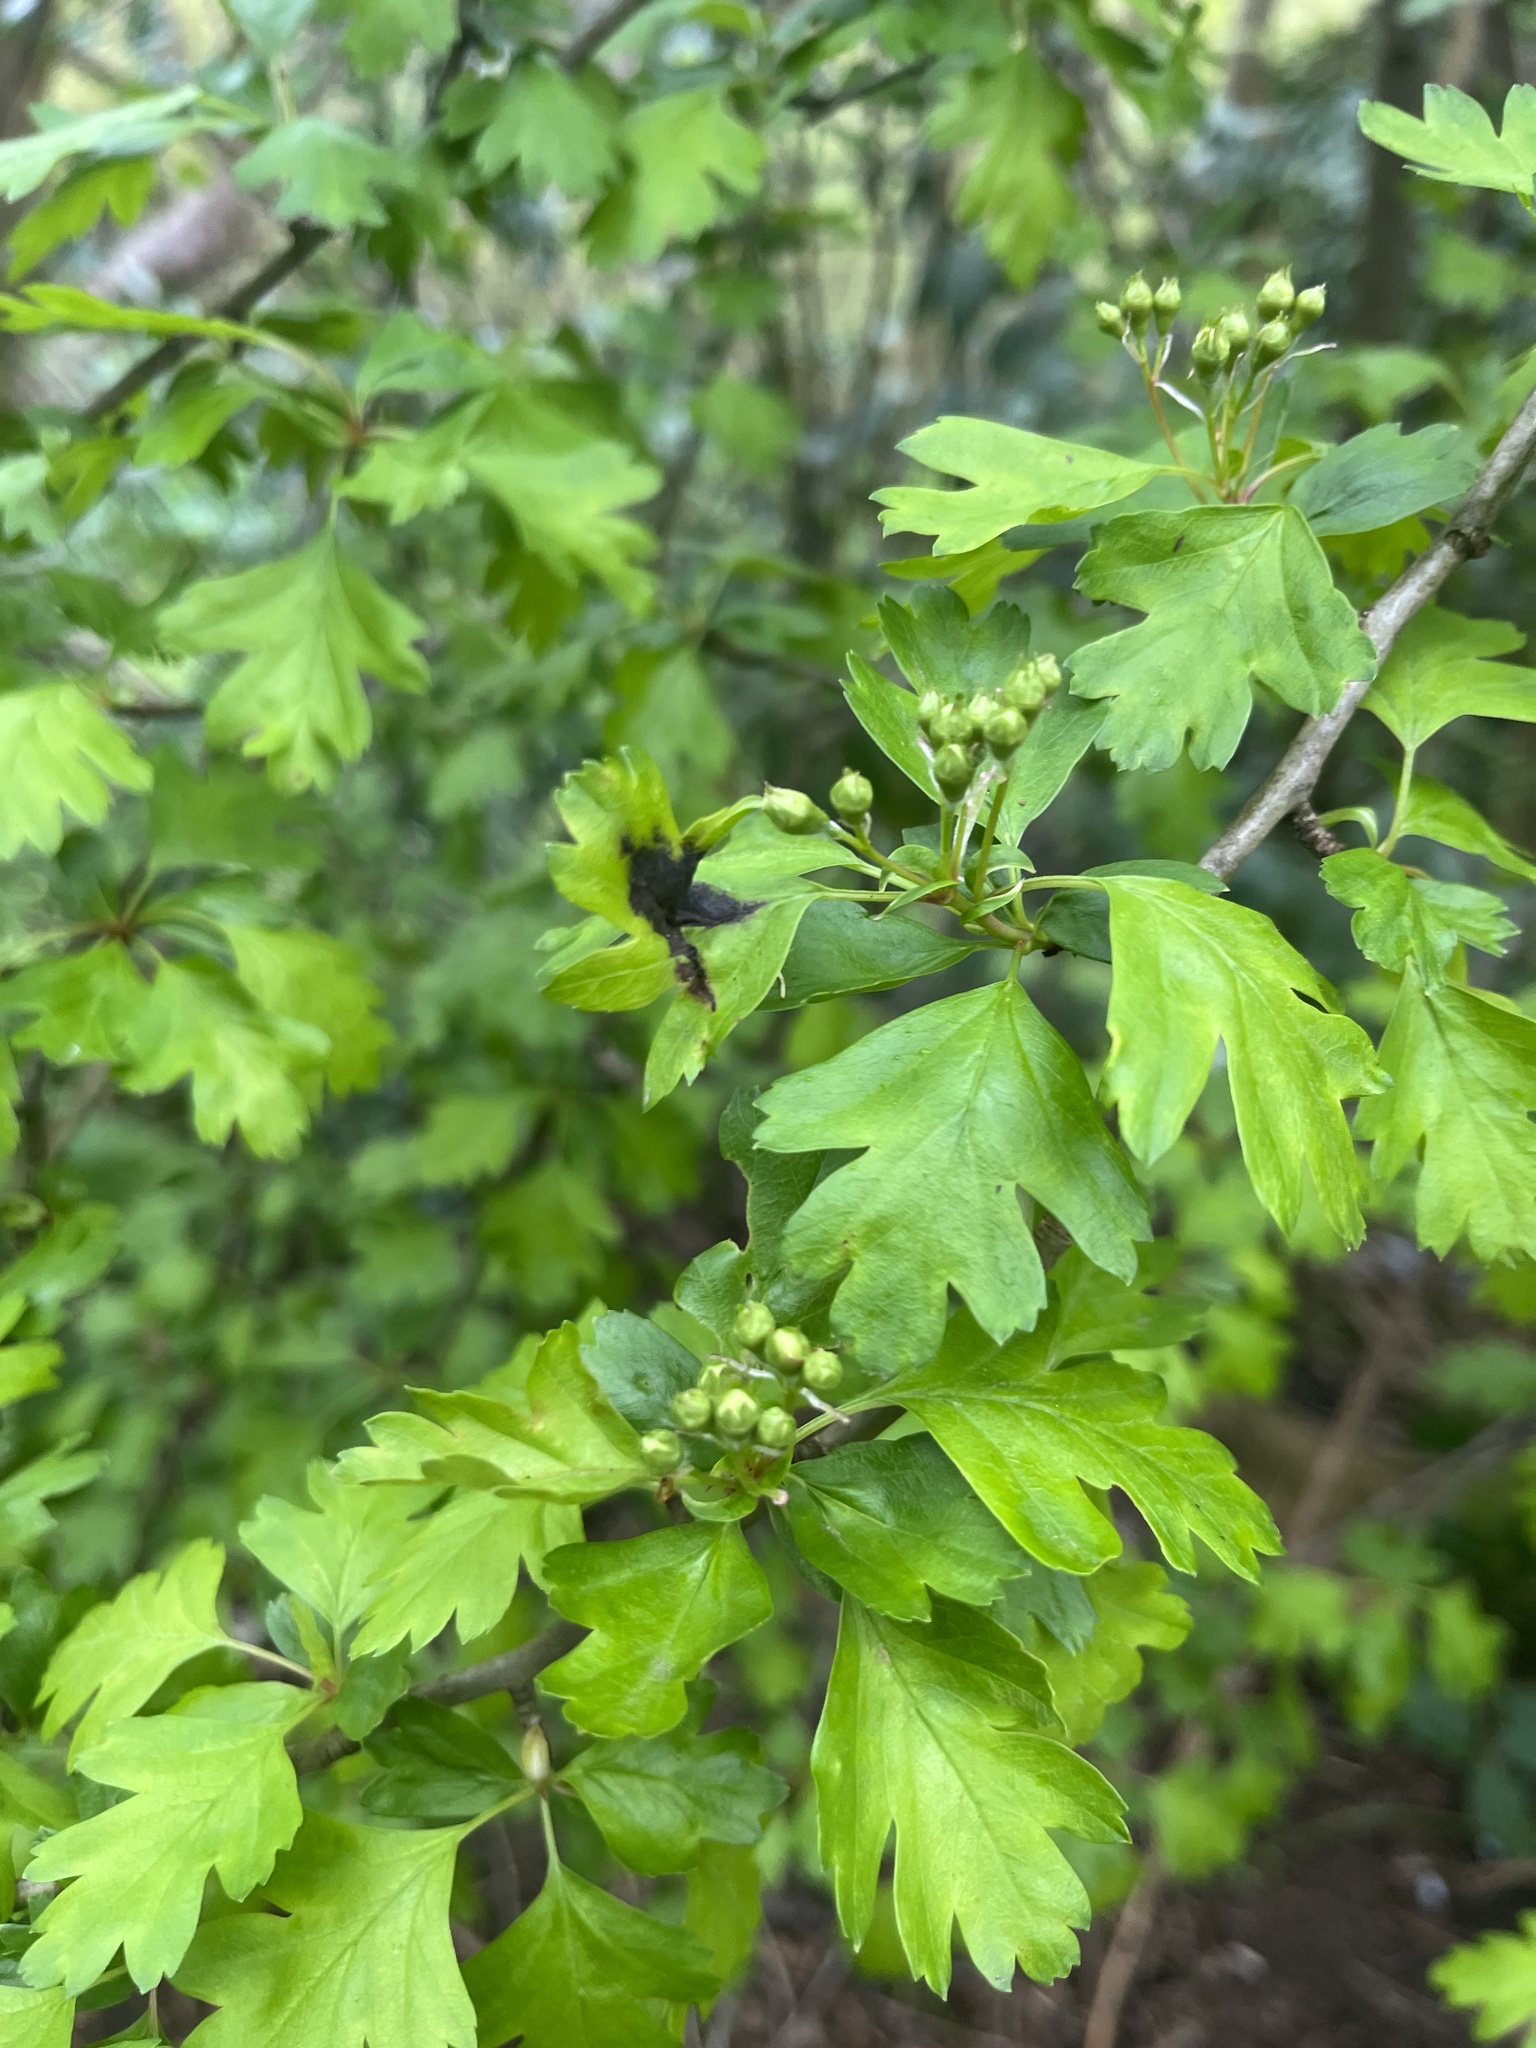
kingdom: Plantae
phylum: Tracheophyta
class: Magnoliopsida
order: Rosales
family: Rosaceae
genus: Crataegus
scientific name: Crataegus monogyna
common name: Hawthorn
